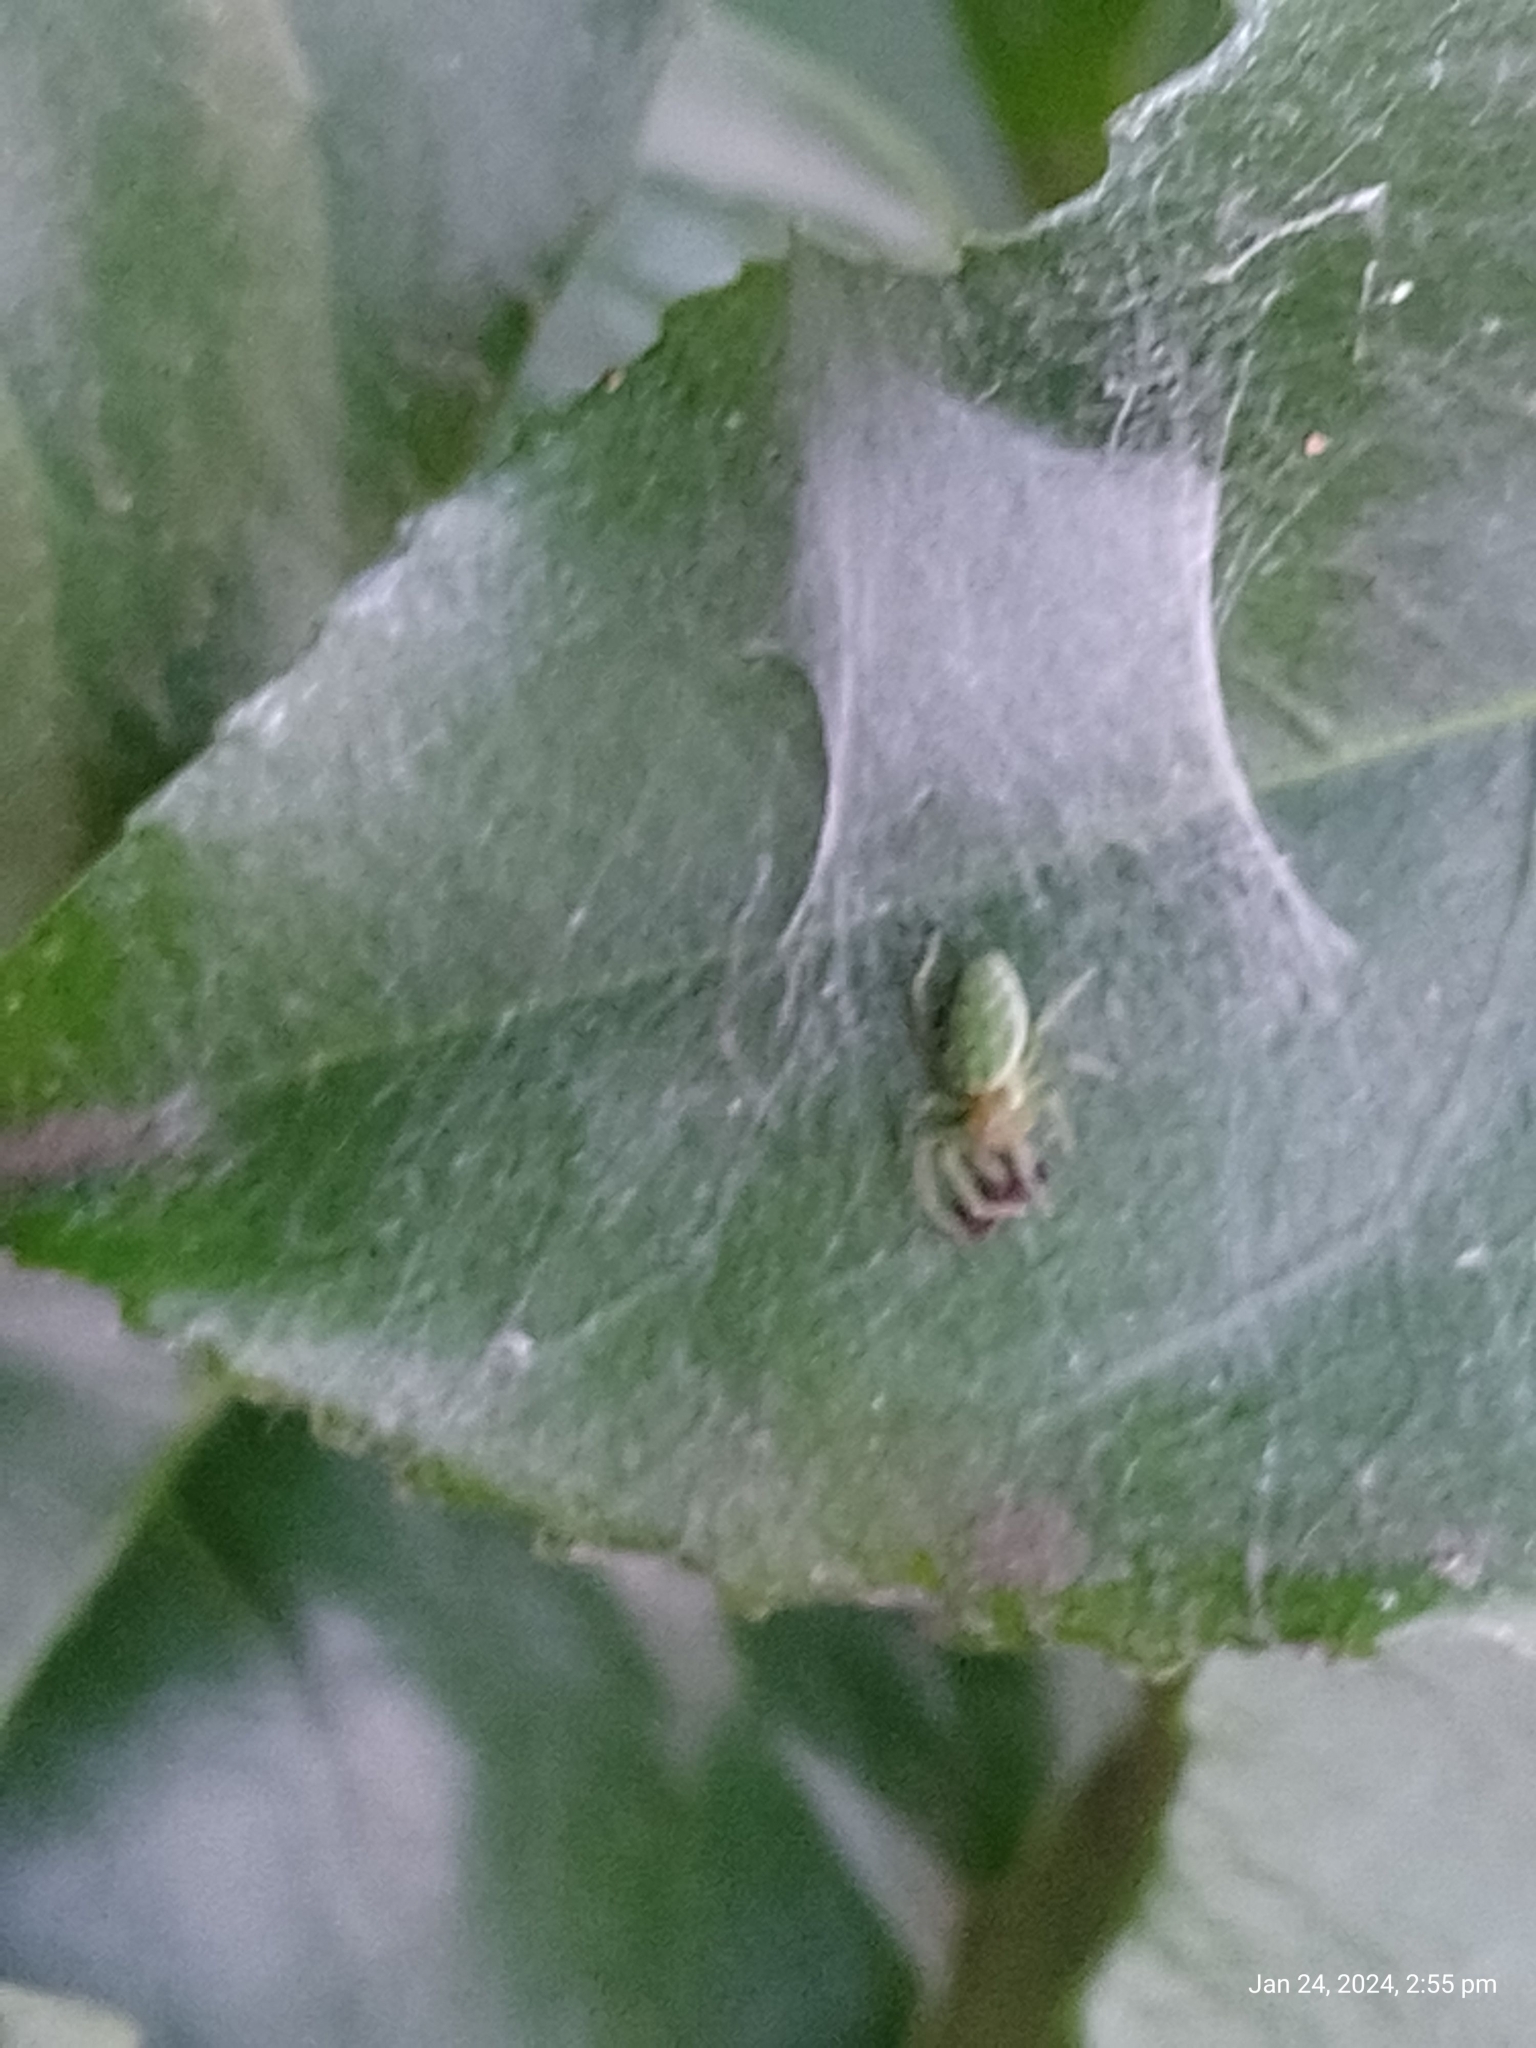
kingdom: Animalia
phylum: Arthropoda
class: Arachnida
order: Araneae
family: Dictynidae
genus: Nigma
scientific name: Nigma walckenaeri
